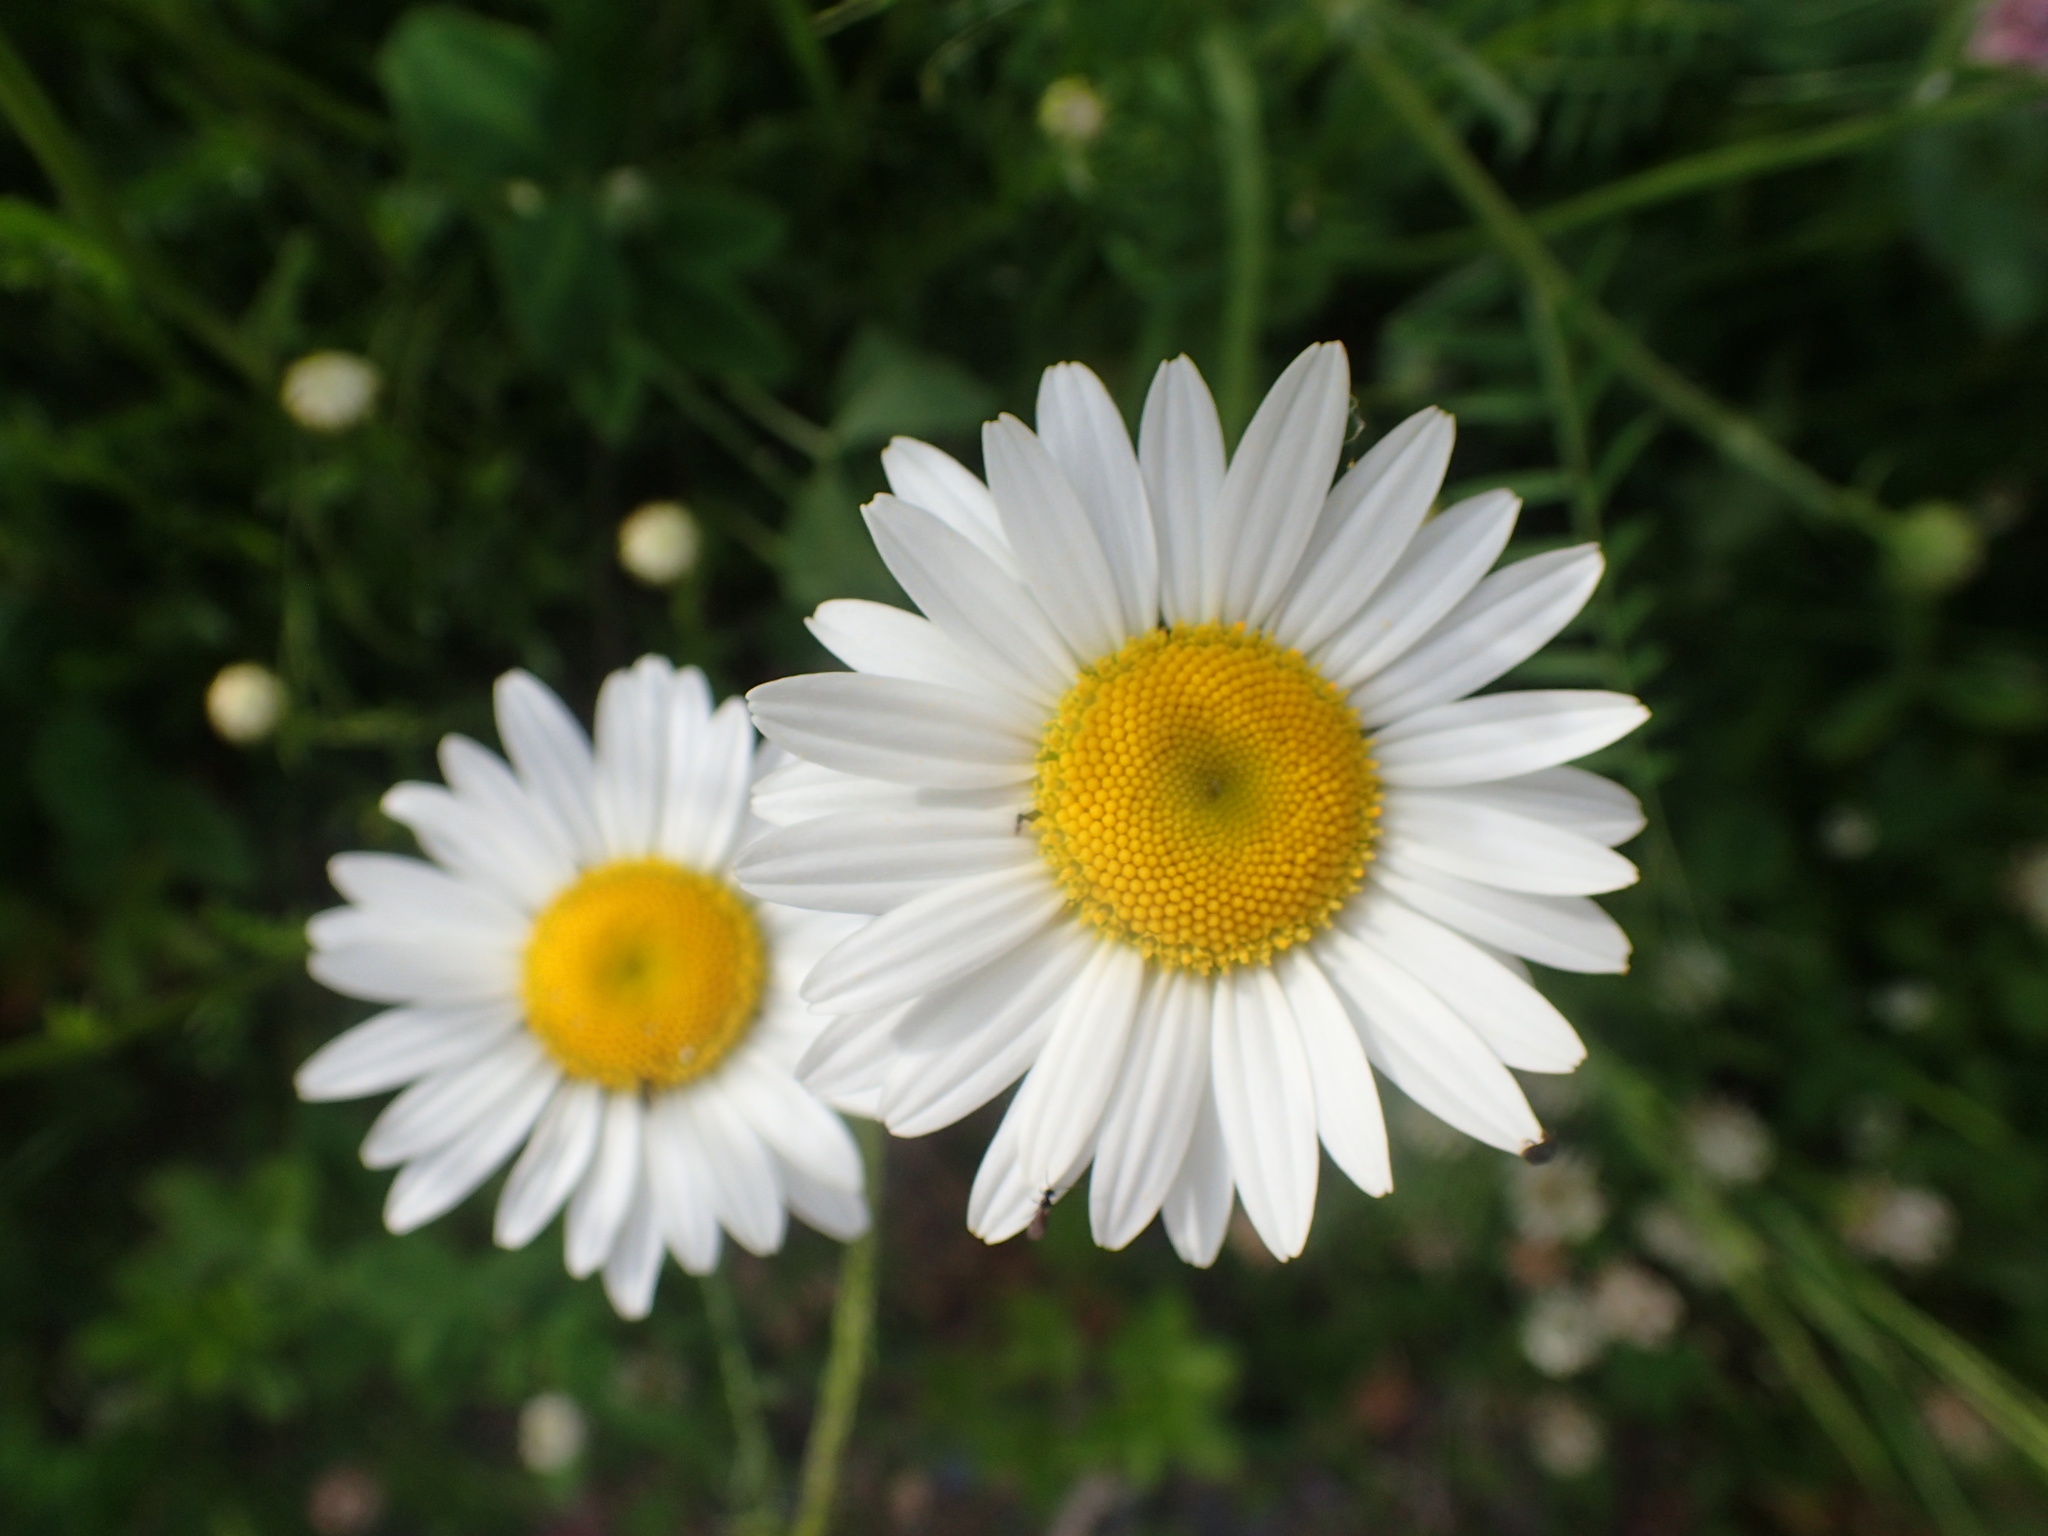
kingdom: Plantae
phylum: Tracheophyta
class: Magnoliopsida
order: Asterales
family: Asteraceae
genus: Leucanthemum
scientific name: Leucanthemum vulgare
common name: Oxeye daisy
